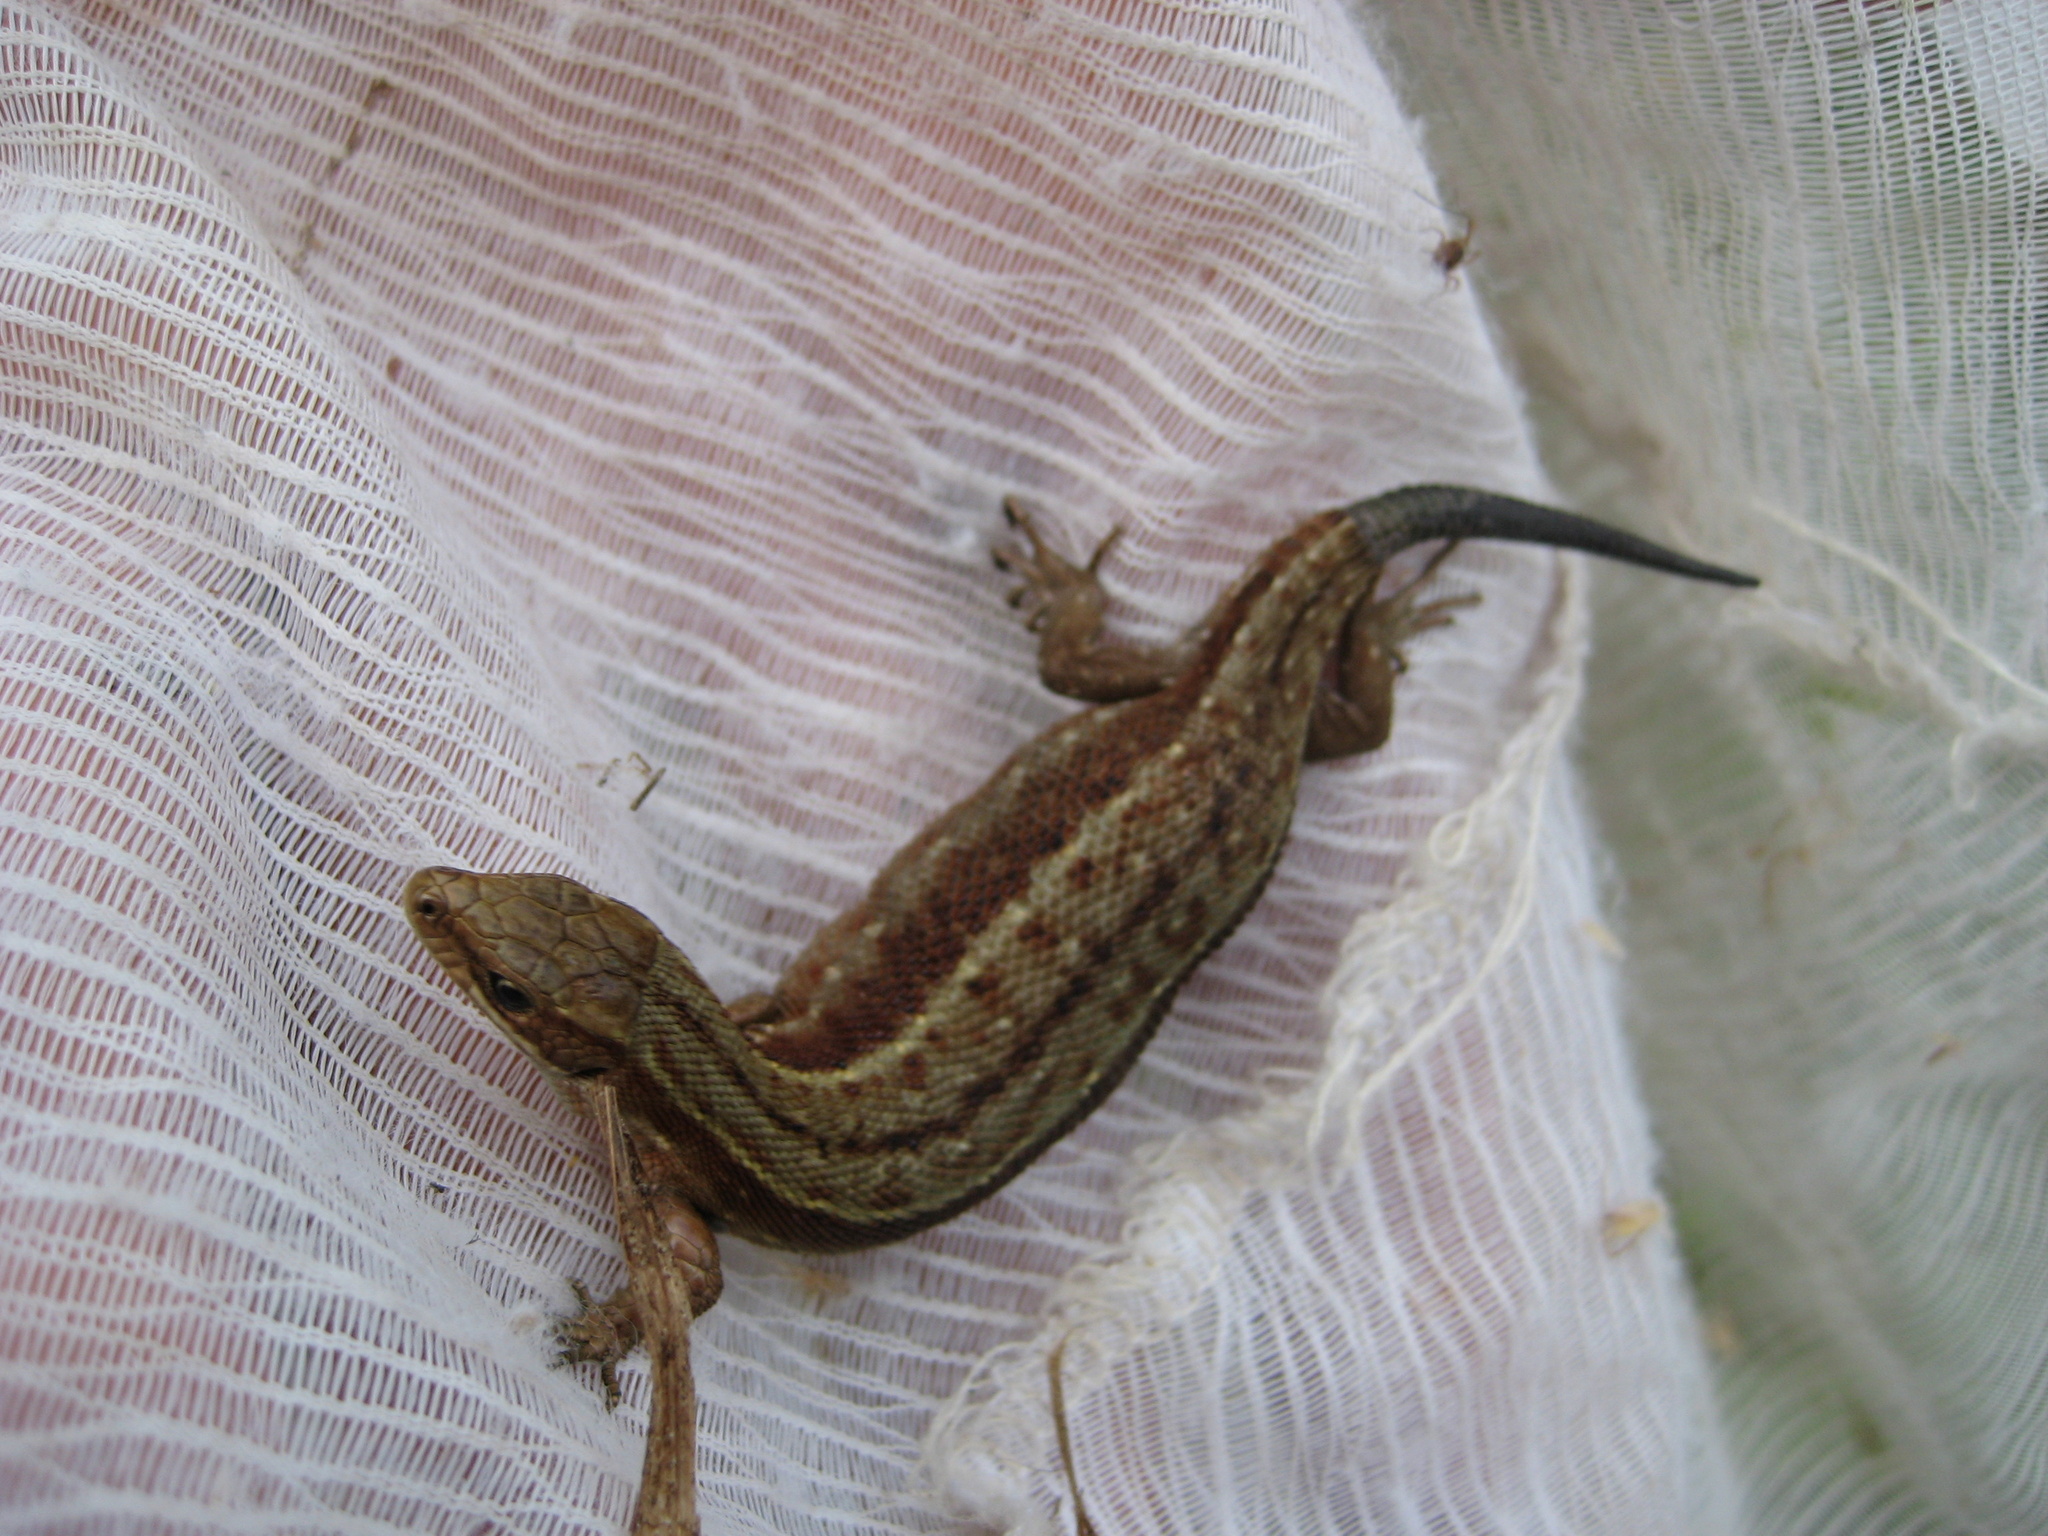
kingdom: Animalia
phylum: Chordata
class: Squamata
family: Lacertidae
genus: Zootoca
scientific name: Zootoca vivipara
